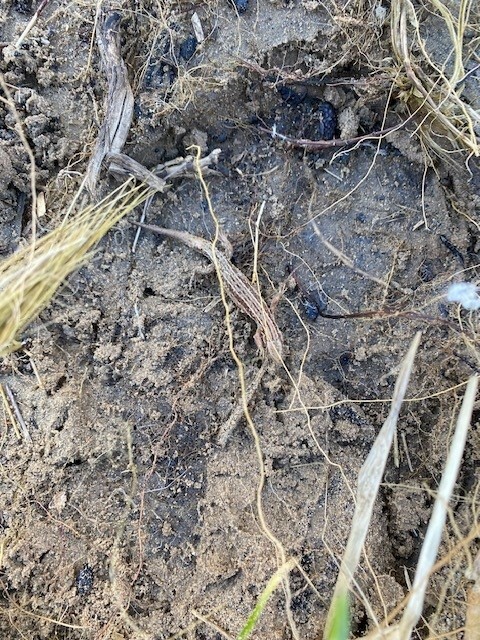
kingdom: Animalia
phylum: Chordata
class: Squamata
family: Lacertidae
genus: Zootoca
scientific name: Zootoca vivipara
